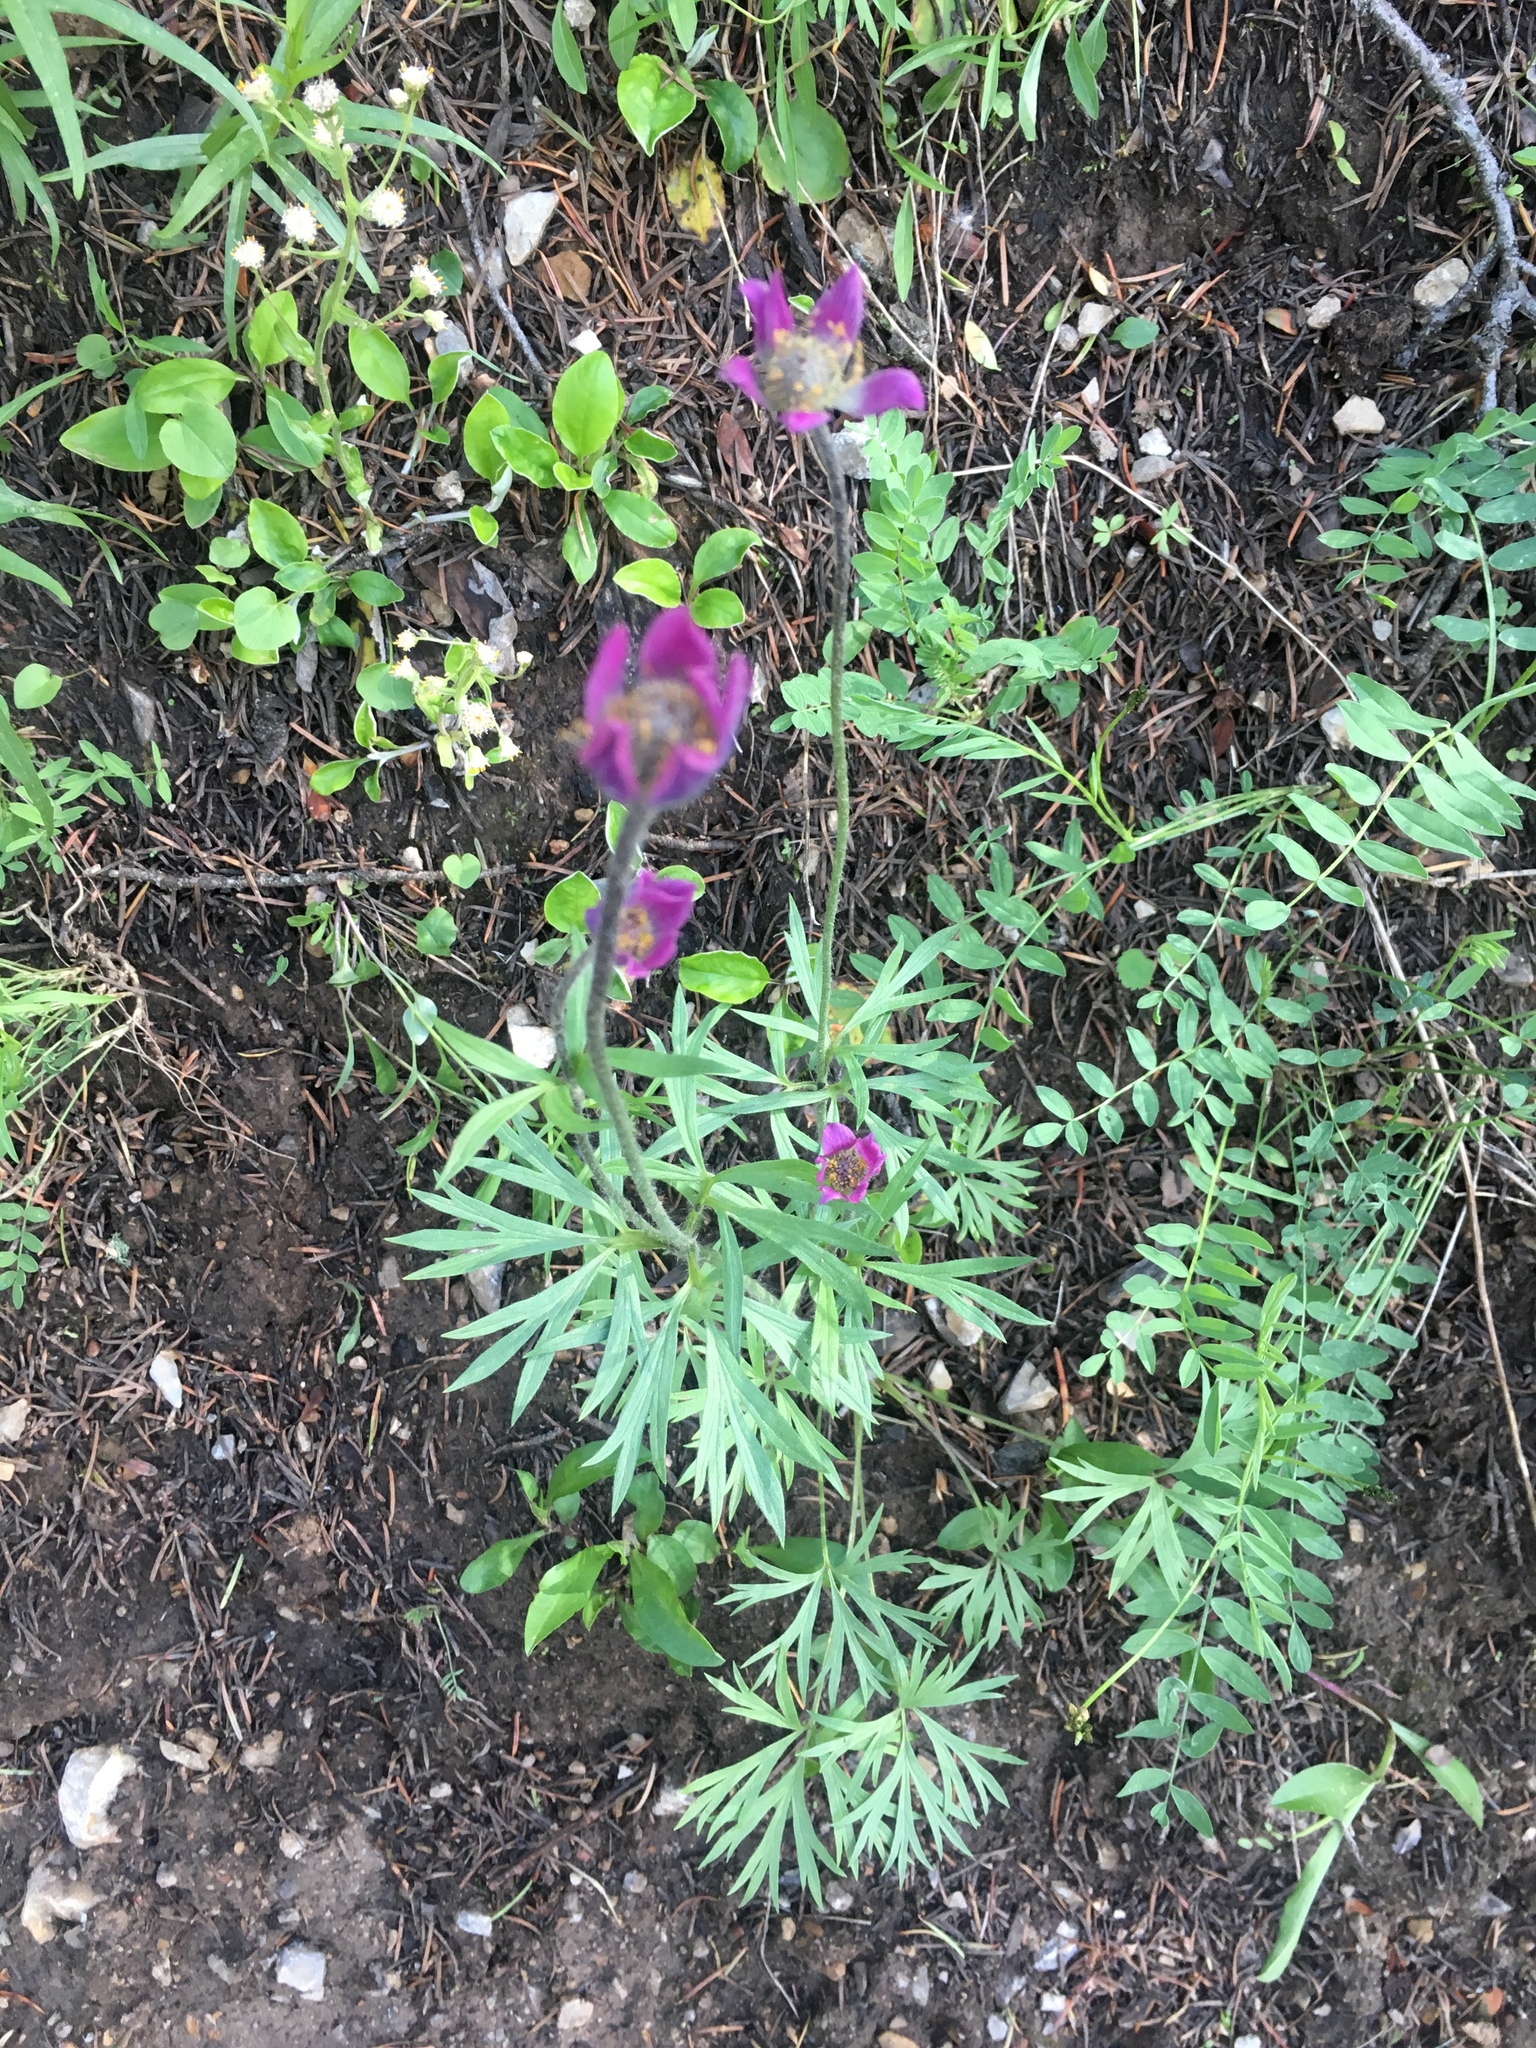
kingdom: Plantae
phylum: Tracheophyta
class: Magnoliopsida
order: Ranunculales
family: Ranunculaceae
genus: Anemone
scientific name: Anemone multifida
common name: Bird's-foot anemone
